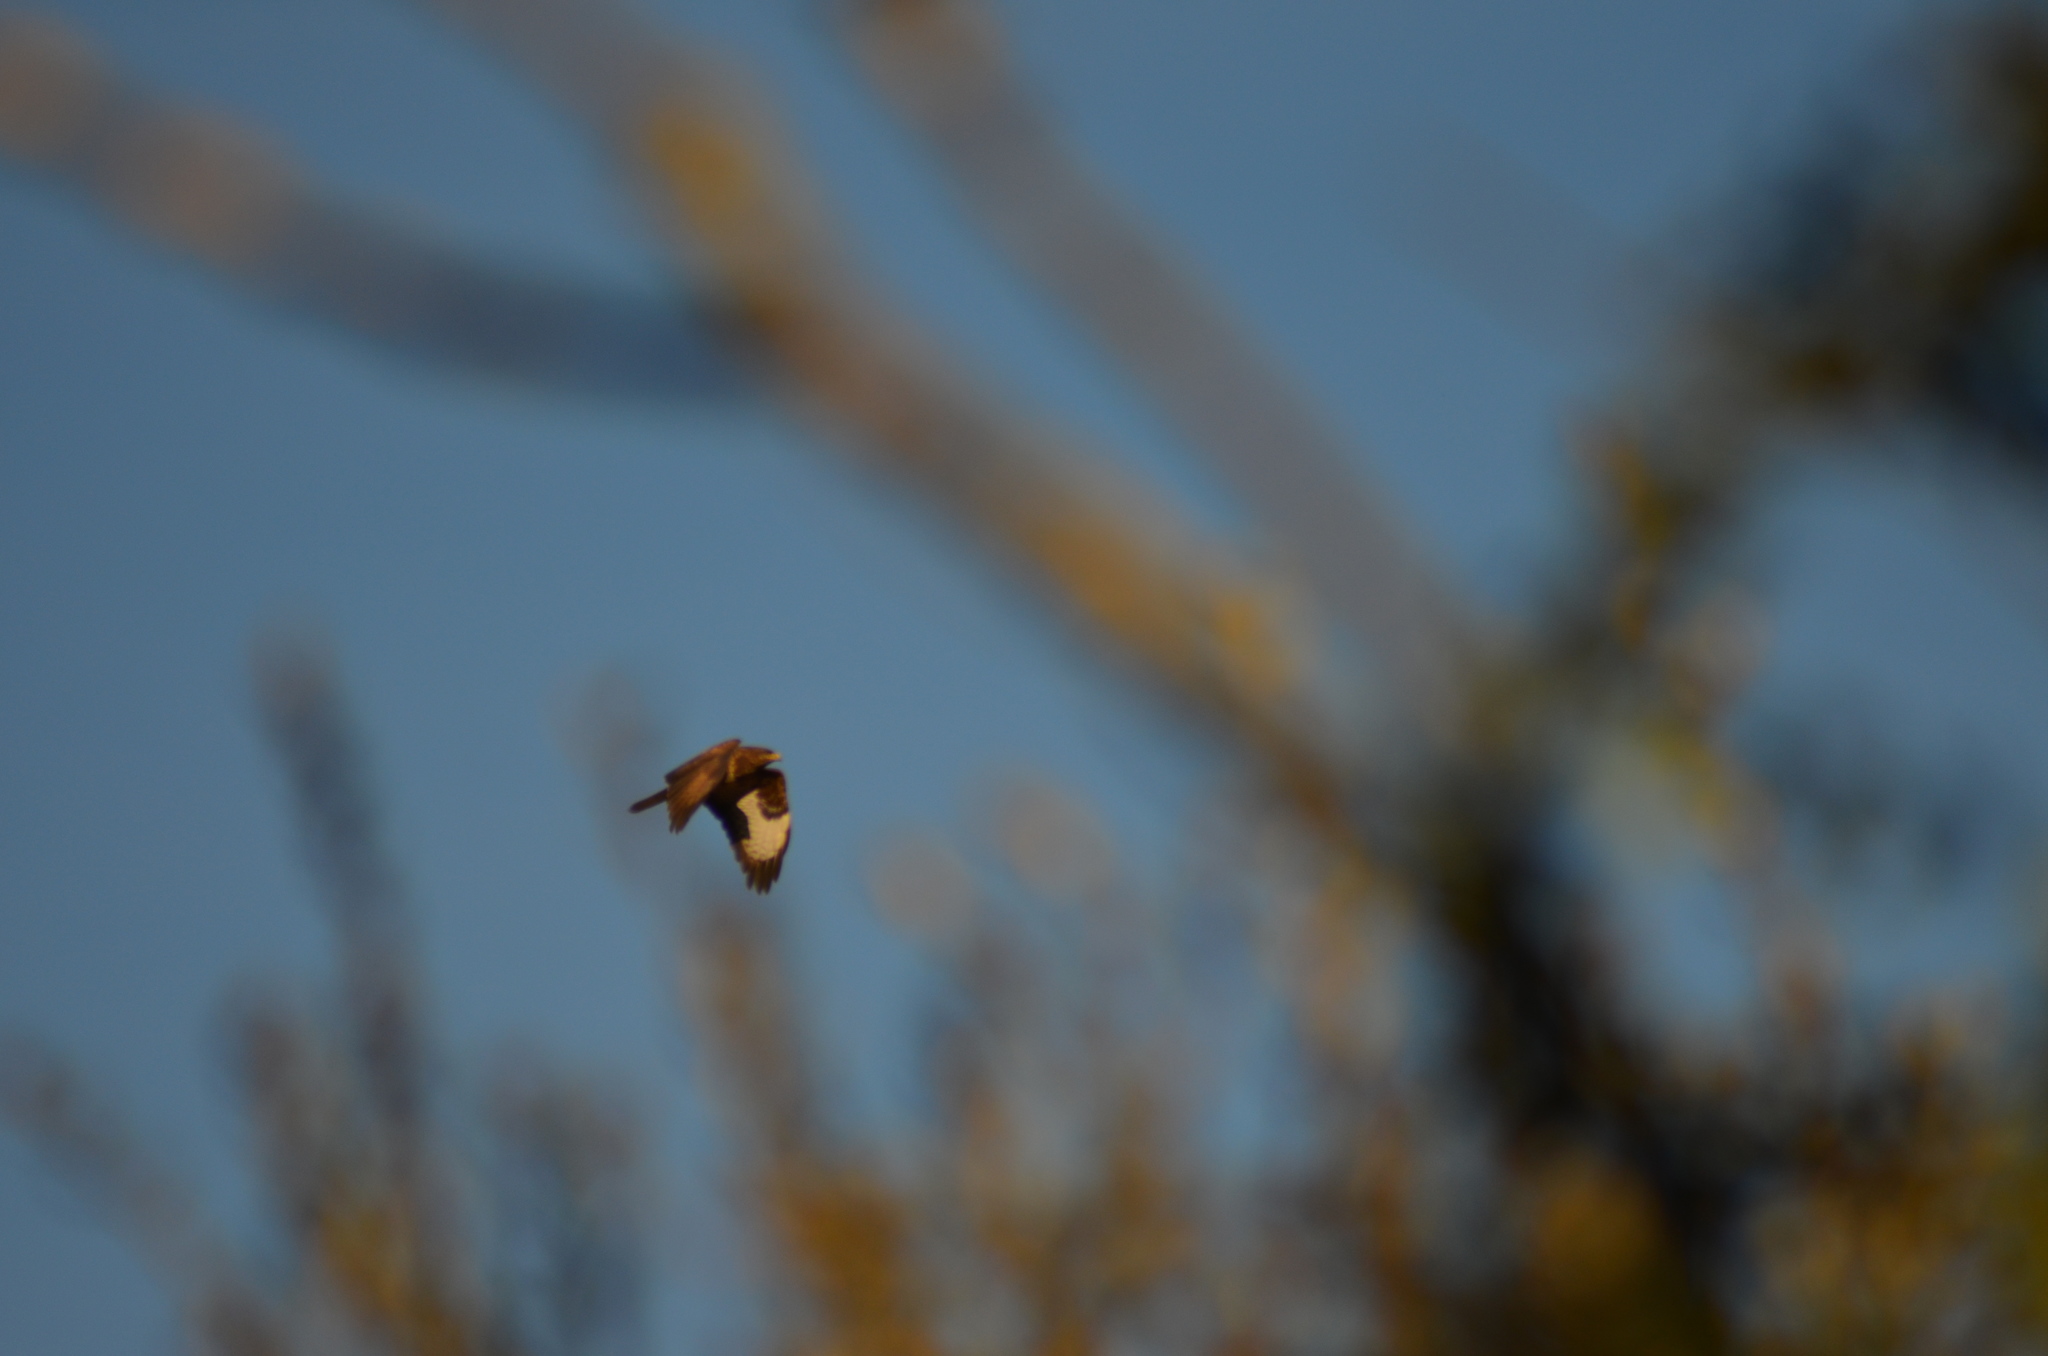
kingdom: Animalia
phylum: Chordata
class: Aves
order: Accipitriformes
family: Accipitridae
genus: Buteo
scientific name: Buteo buteo
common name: Common buzzard
